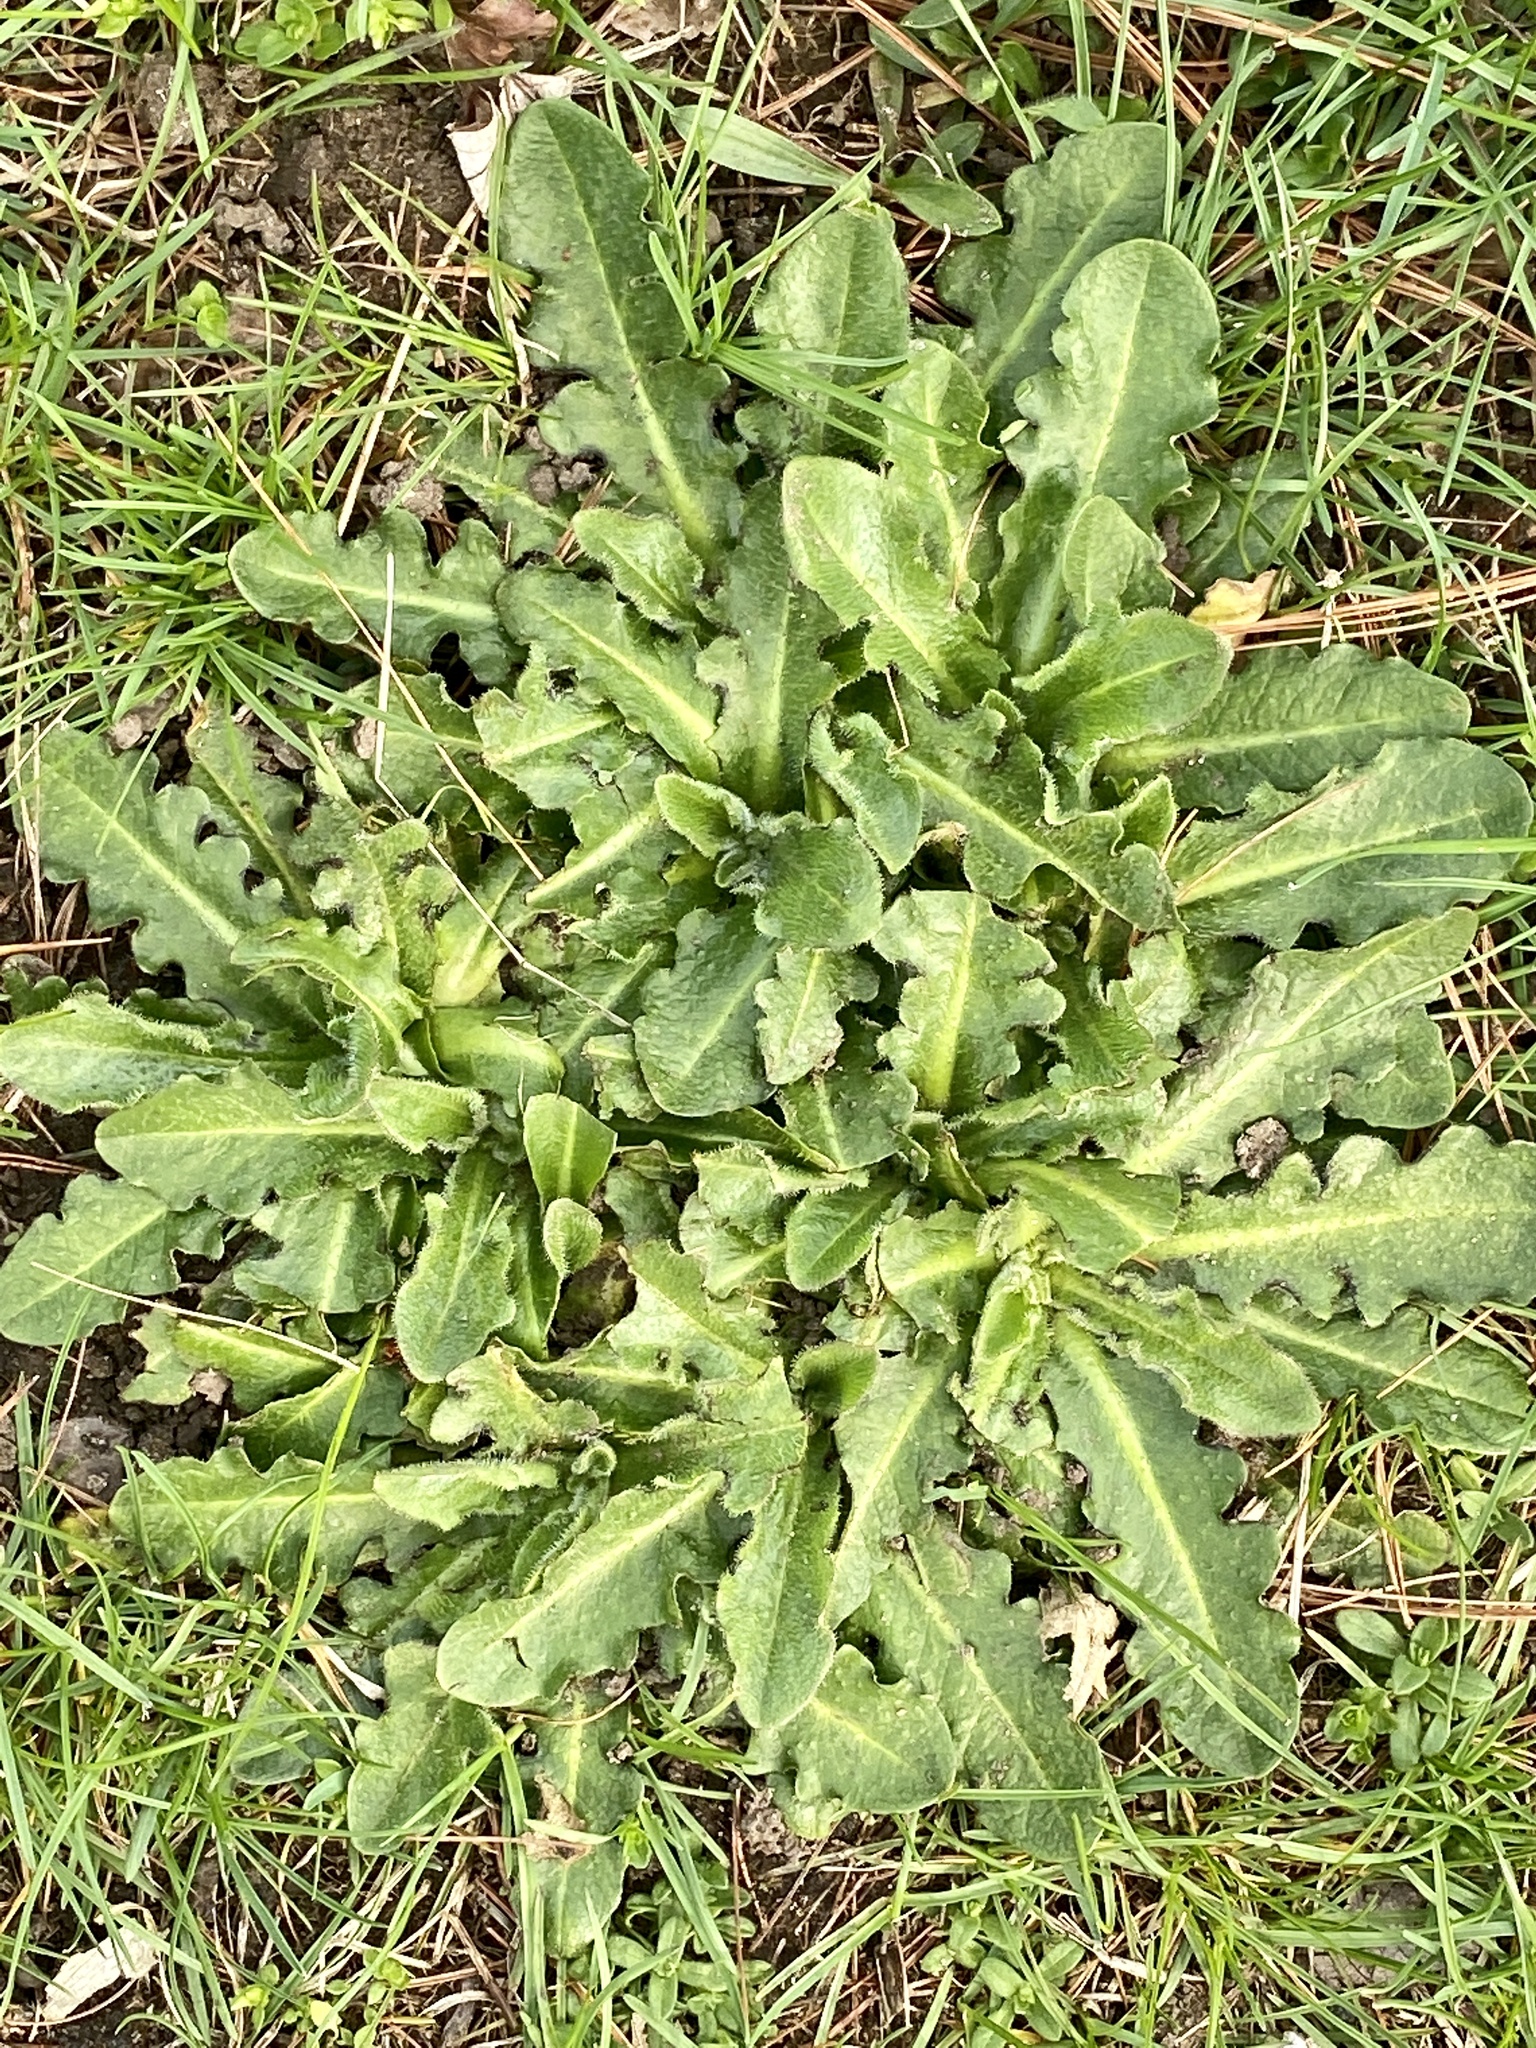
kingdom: Plantae
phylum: Tracheophyta
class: Magnoliopsida
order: Asterales
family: Asteraceae
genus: Hypochaeris
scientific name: Hypochaeris radicata
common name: Flatweed
